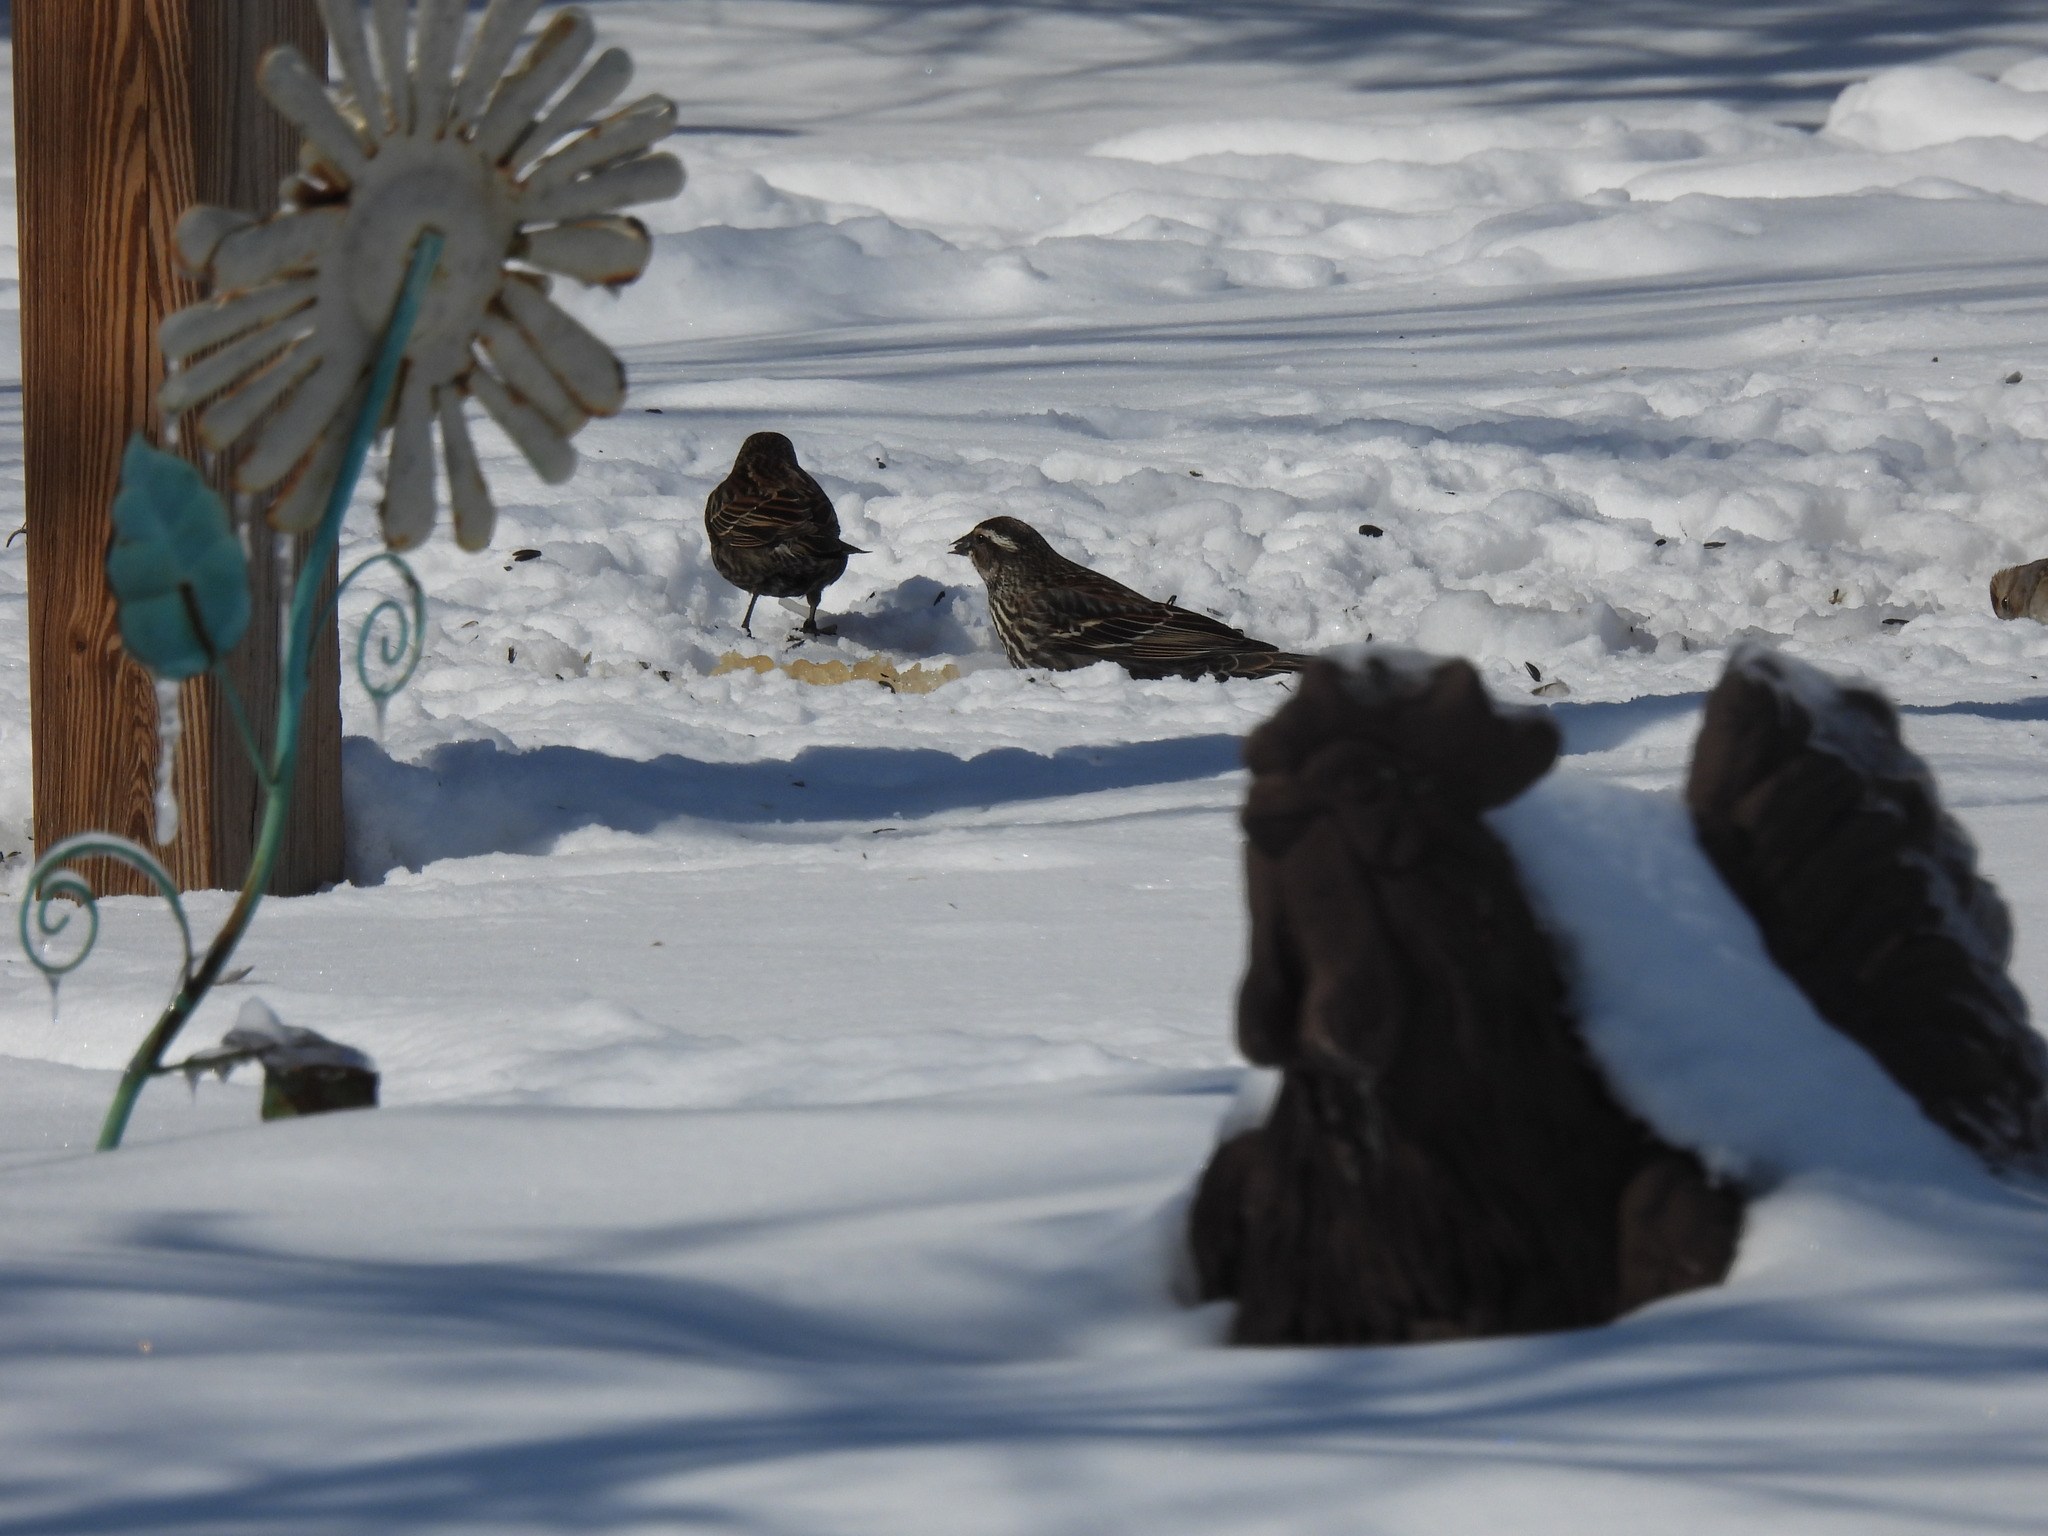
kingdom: Animalia
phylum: Chordata
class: Aves
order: Passeriformes
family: Icteridae
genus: Agelaius
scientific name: Agelaius phoeniceus
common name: Red-winged blackbird
